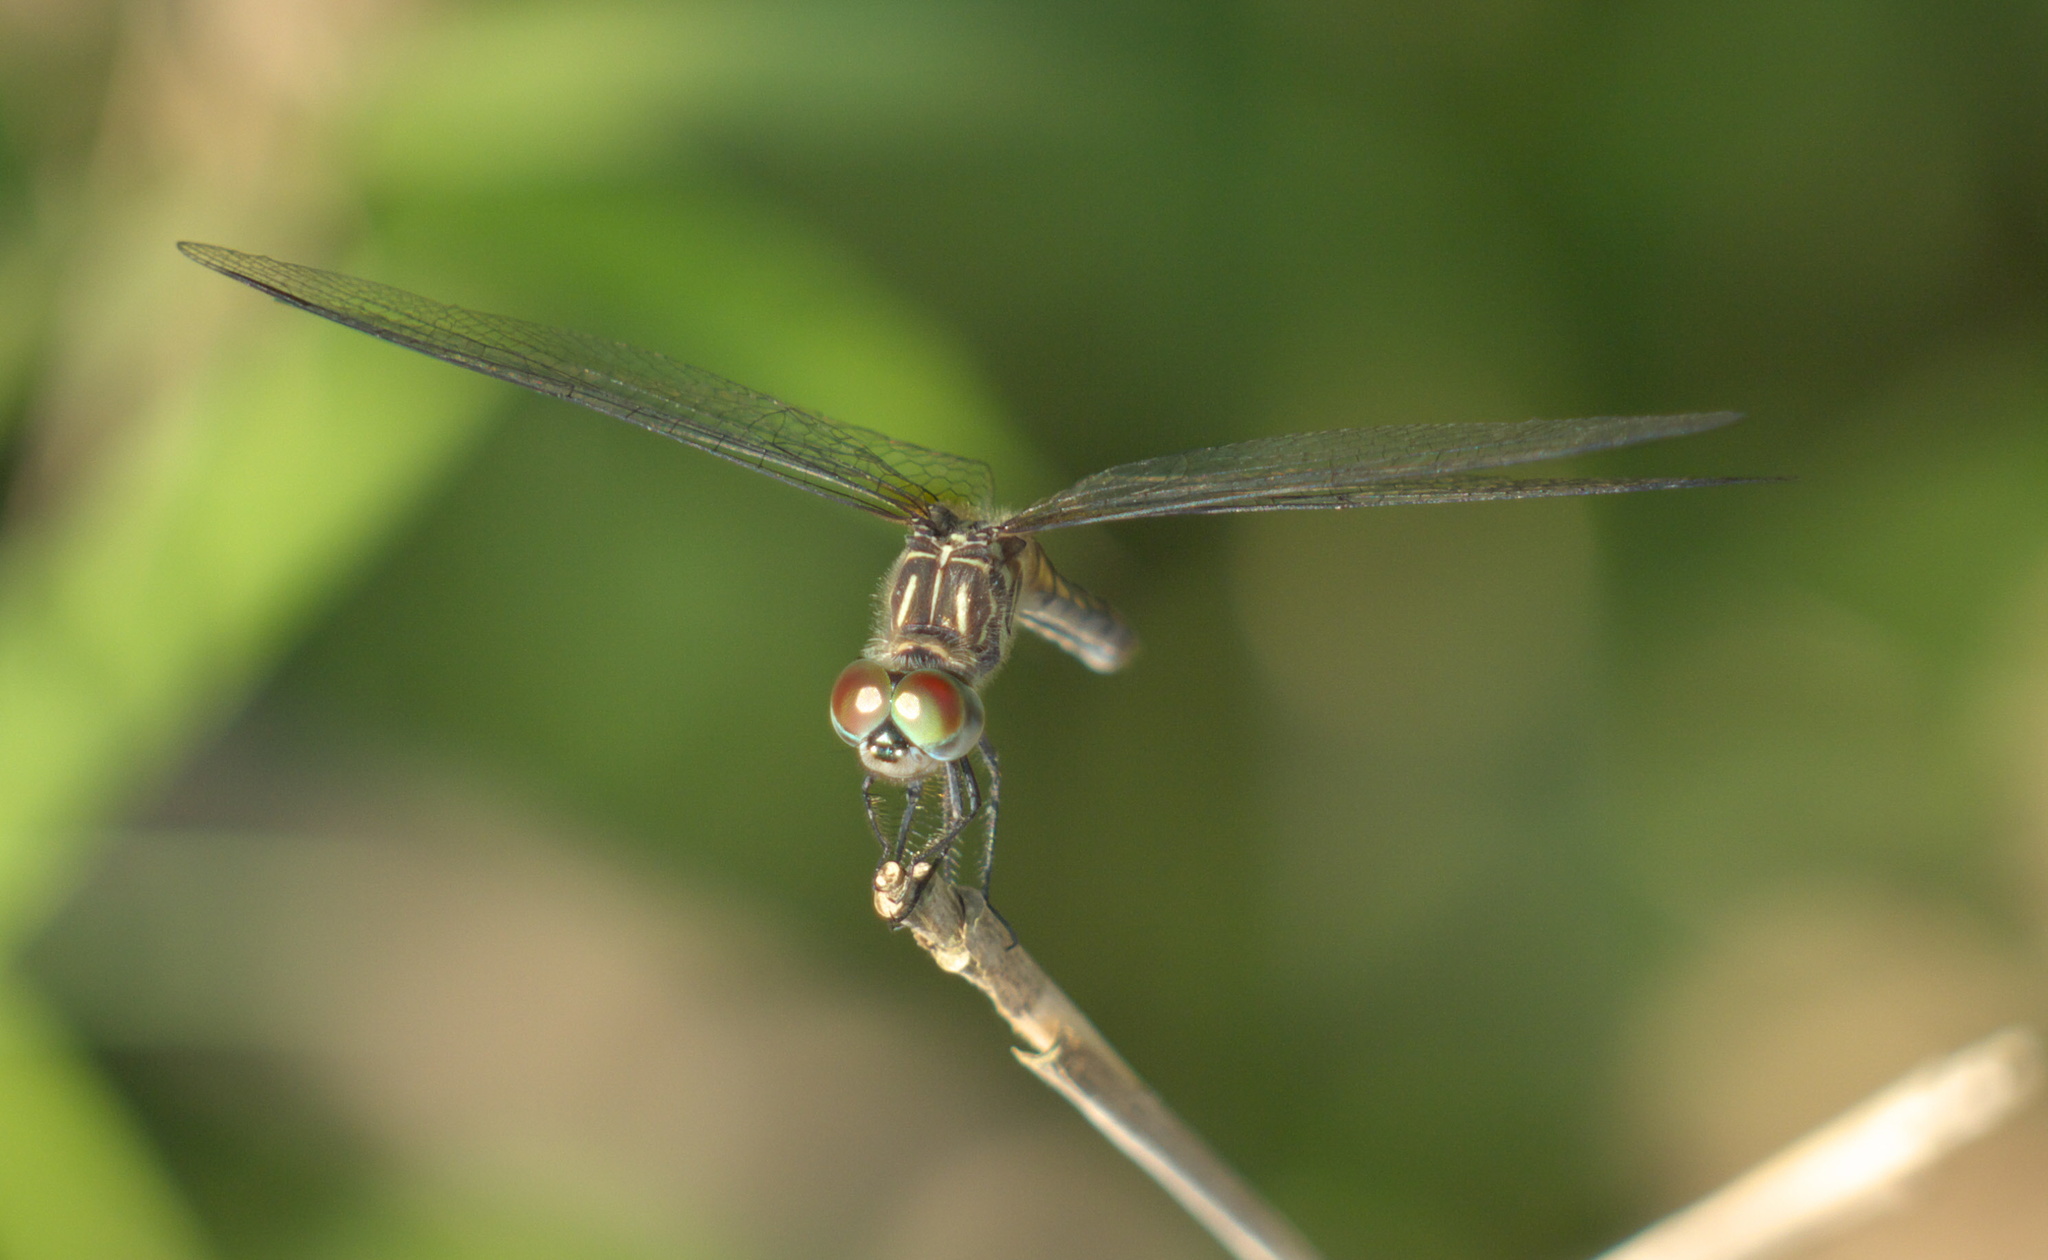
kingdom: Animalia
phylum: Arthropoda
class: Insecta
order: Odonata
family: Libellulidae
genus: Pachydiplax
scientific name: Pachydiplax longipennis
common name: Blue dasher
